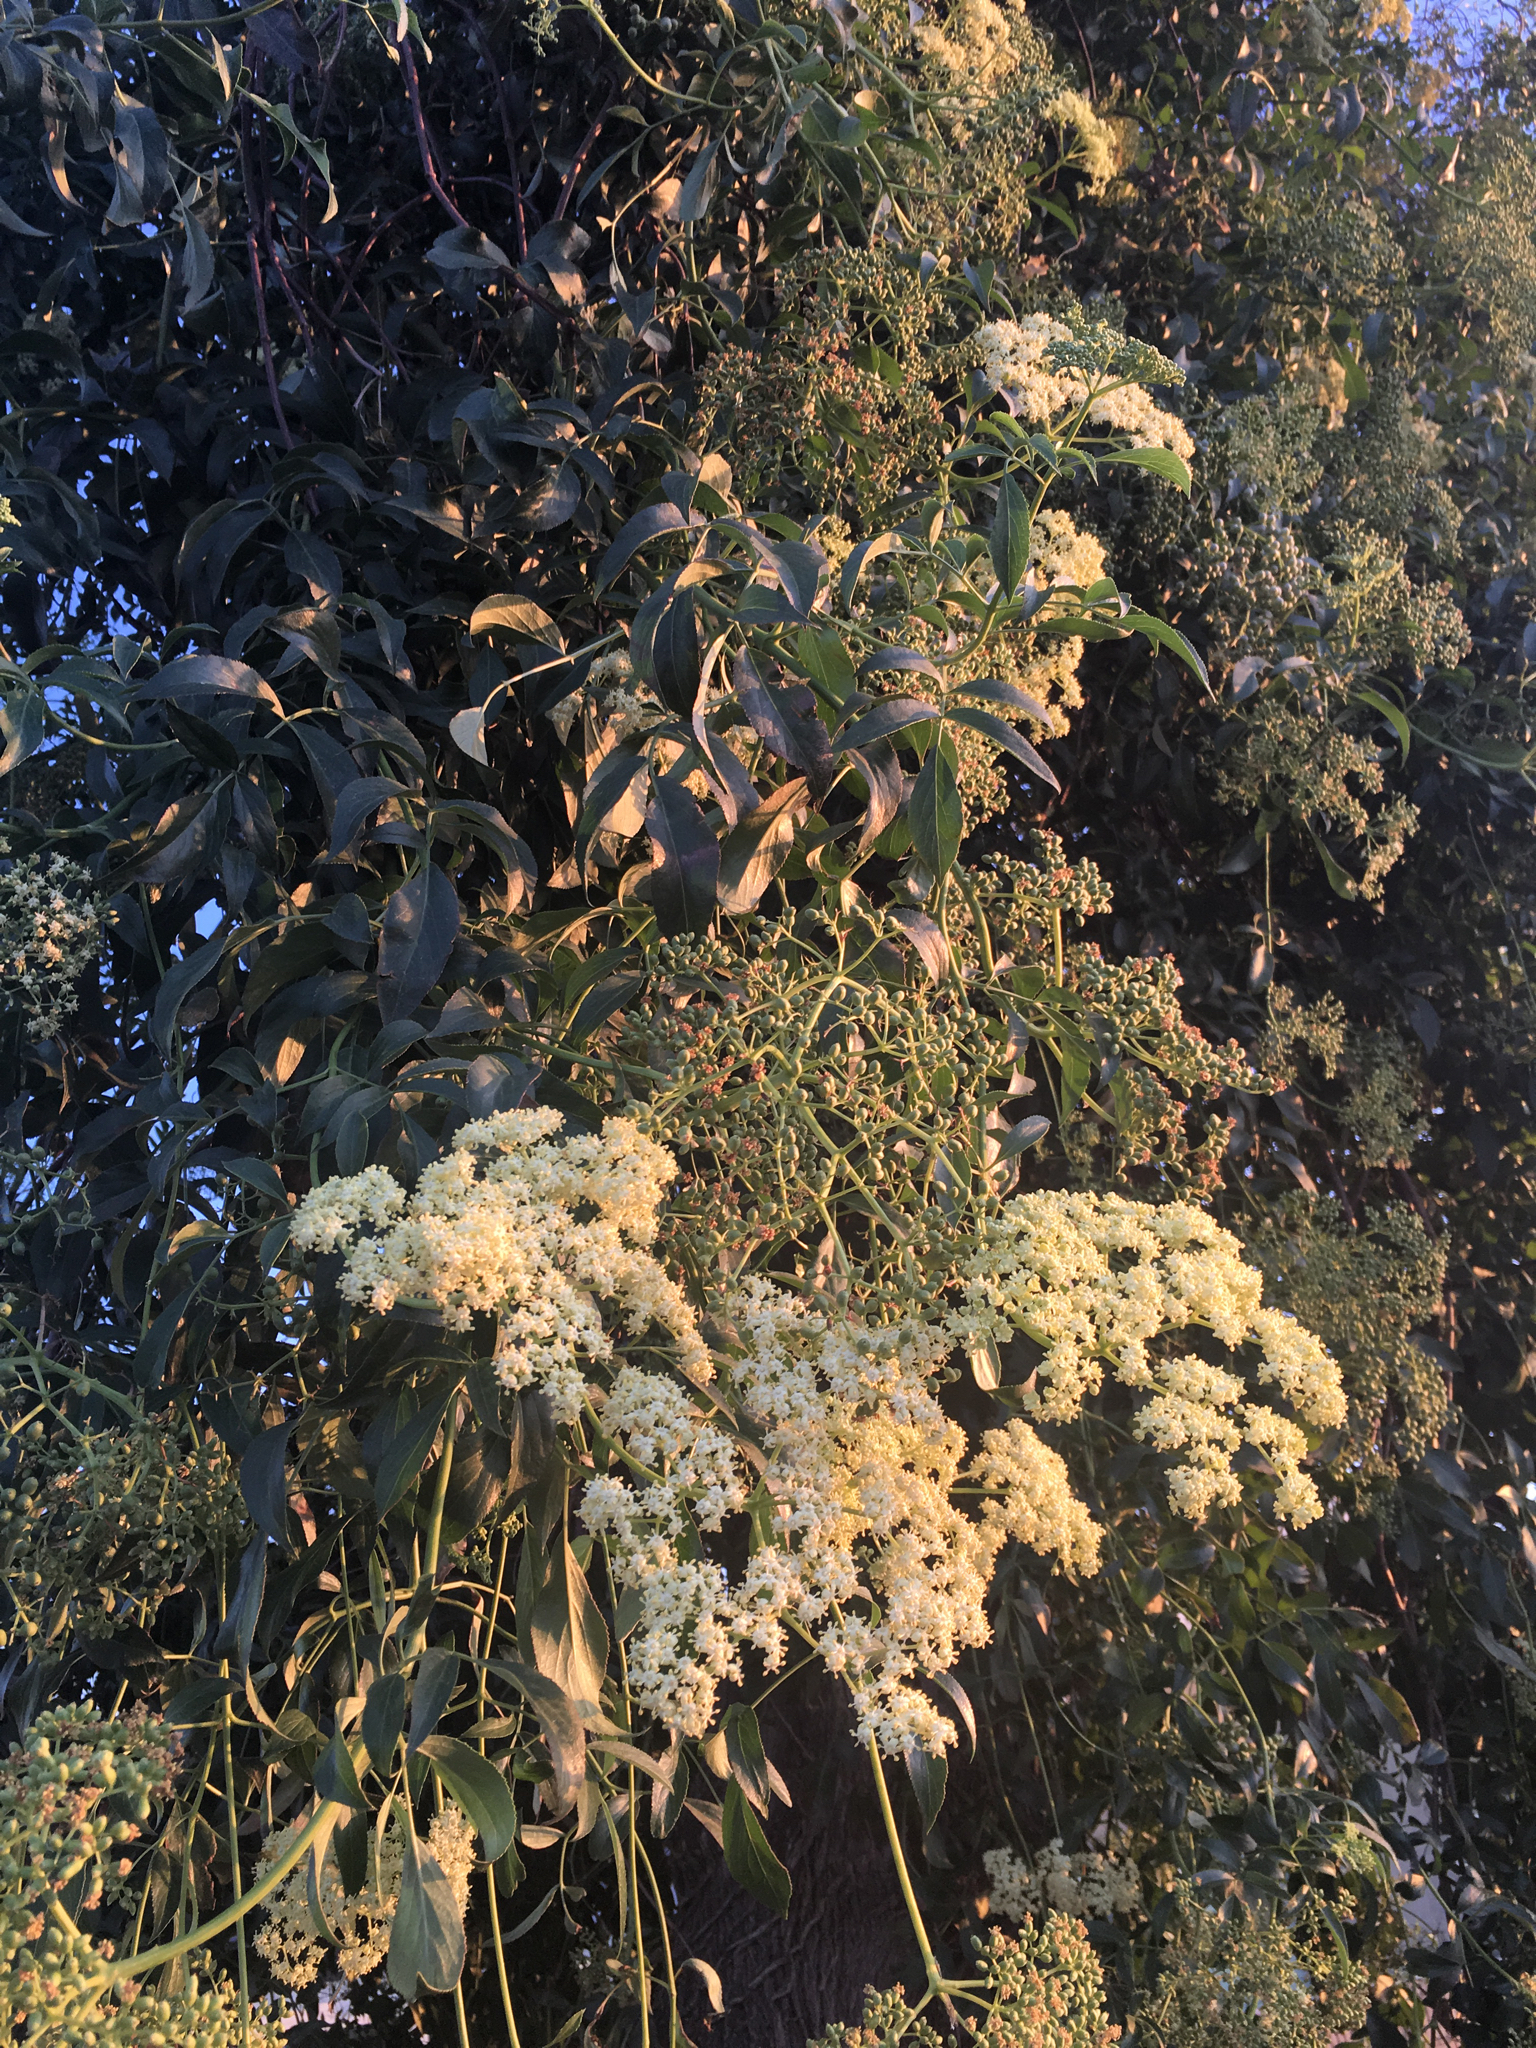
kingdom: Plantae
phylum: Tracheophyta
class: Magnoliopsida
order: Dipsacales
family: Viburnaceae
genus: Sambucus
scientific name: Sambucus cerulea
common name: Blue elder
